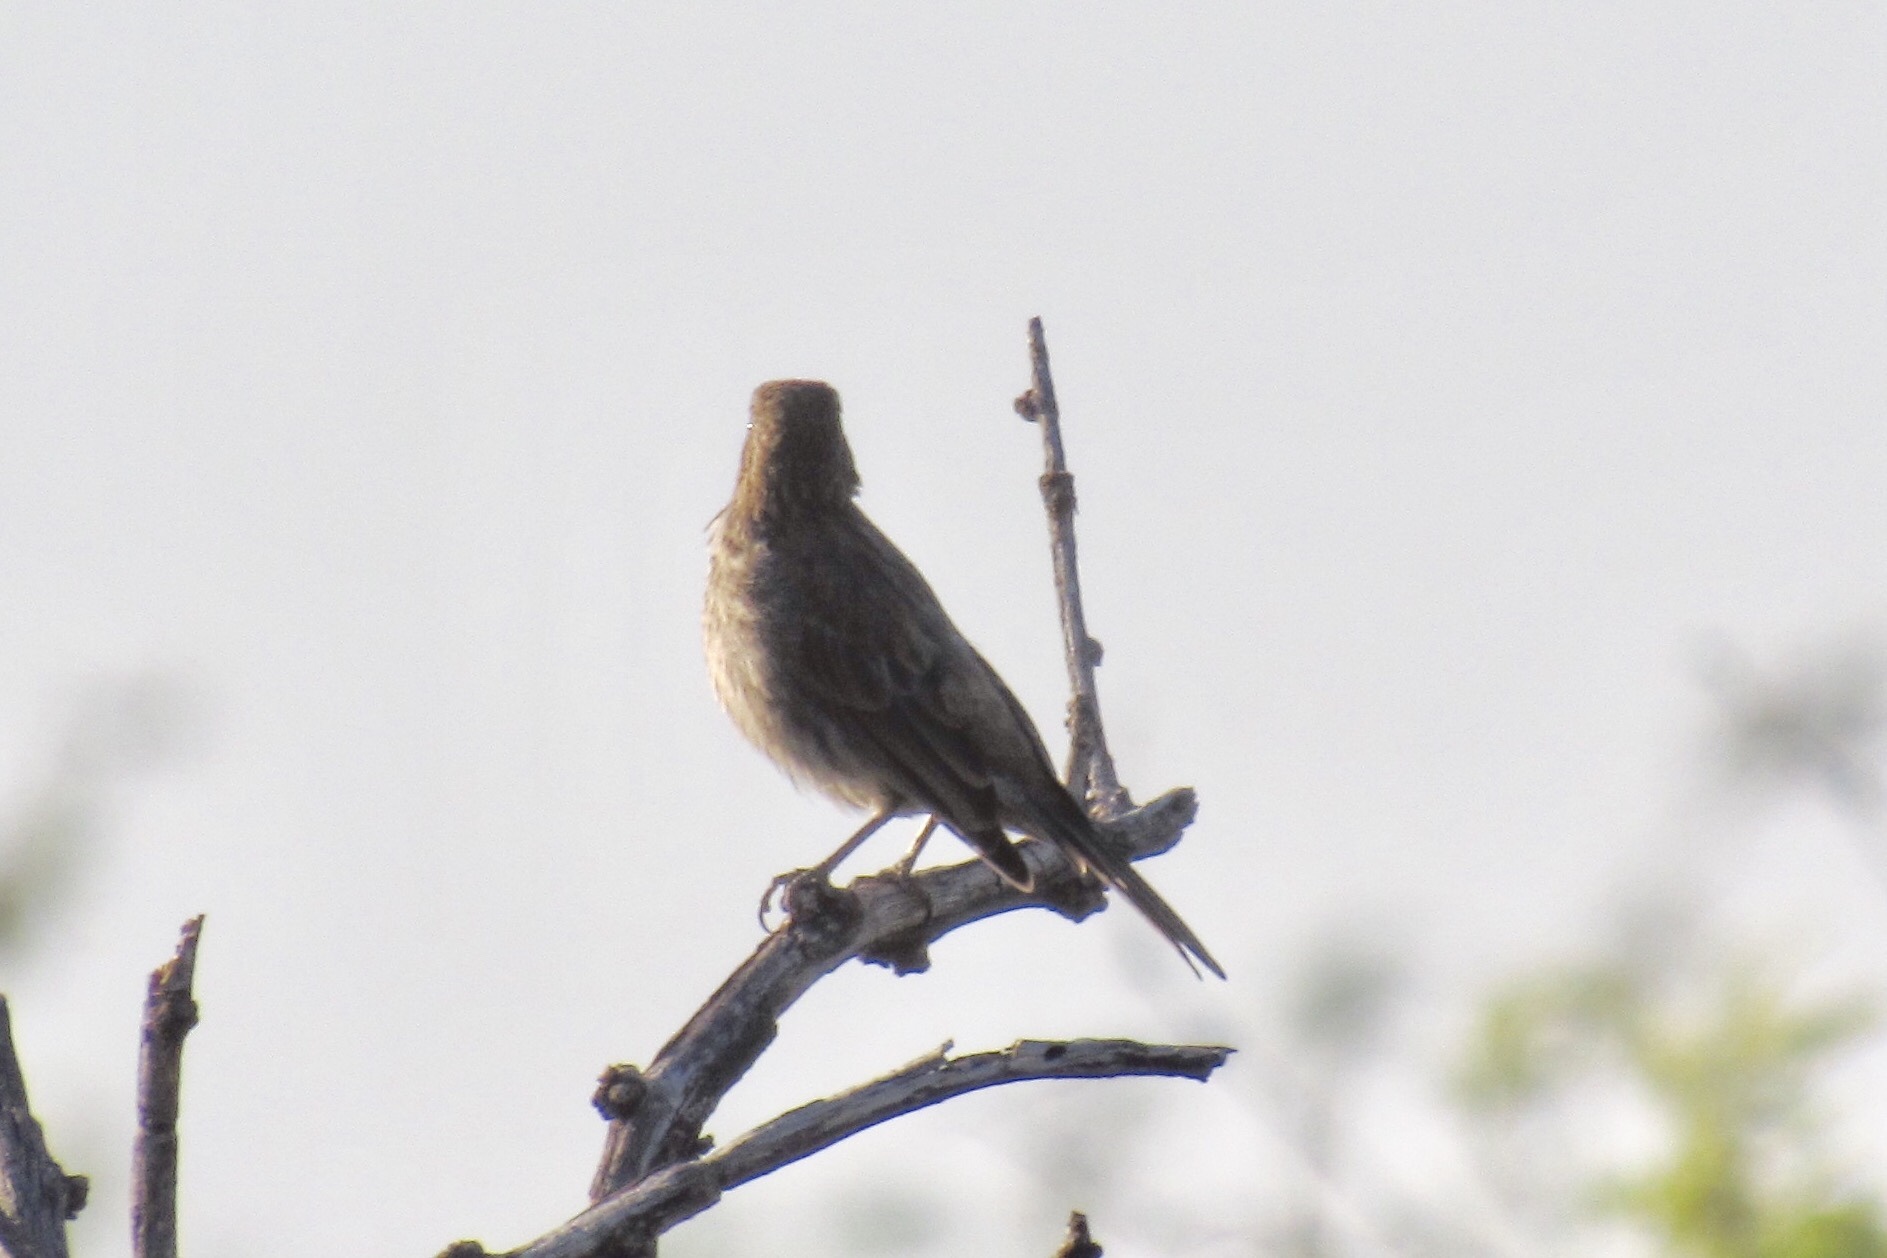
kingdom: Animalia
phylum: Chordata
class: Aves
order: Passeriformes
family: Fringillidae
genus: Haemorhous
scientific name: Haemorhous mexicanus
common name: House finch
